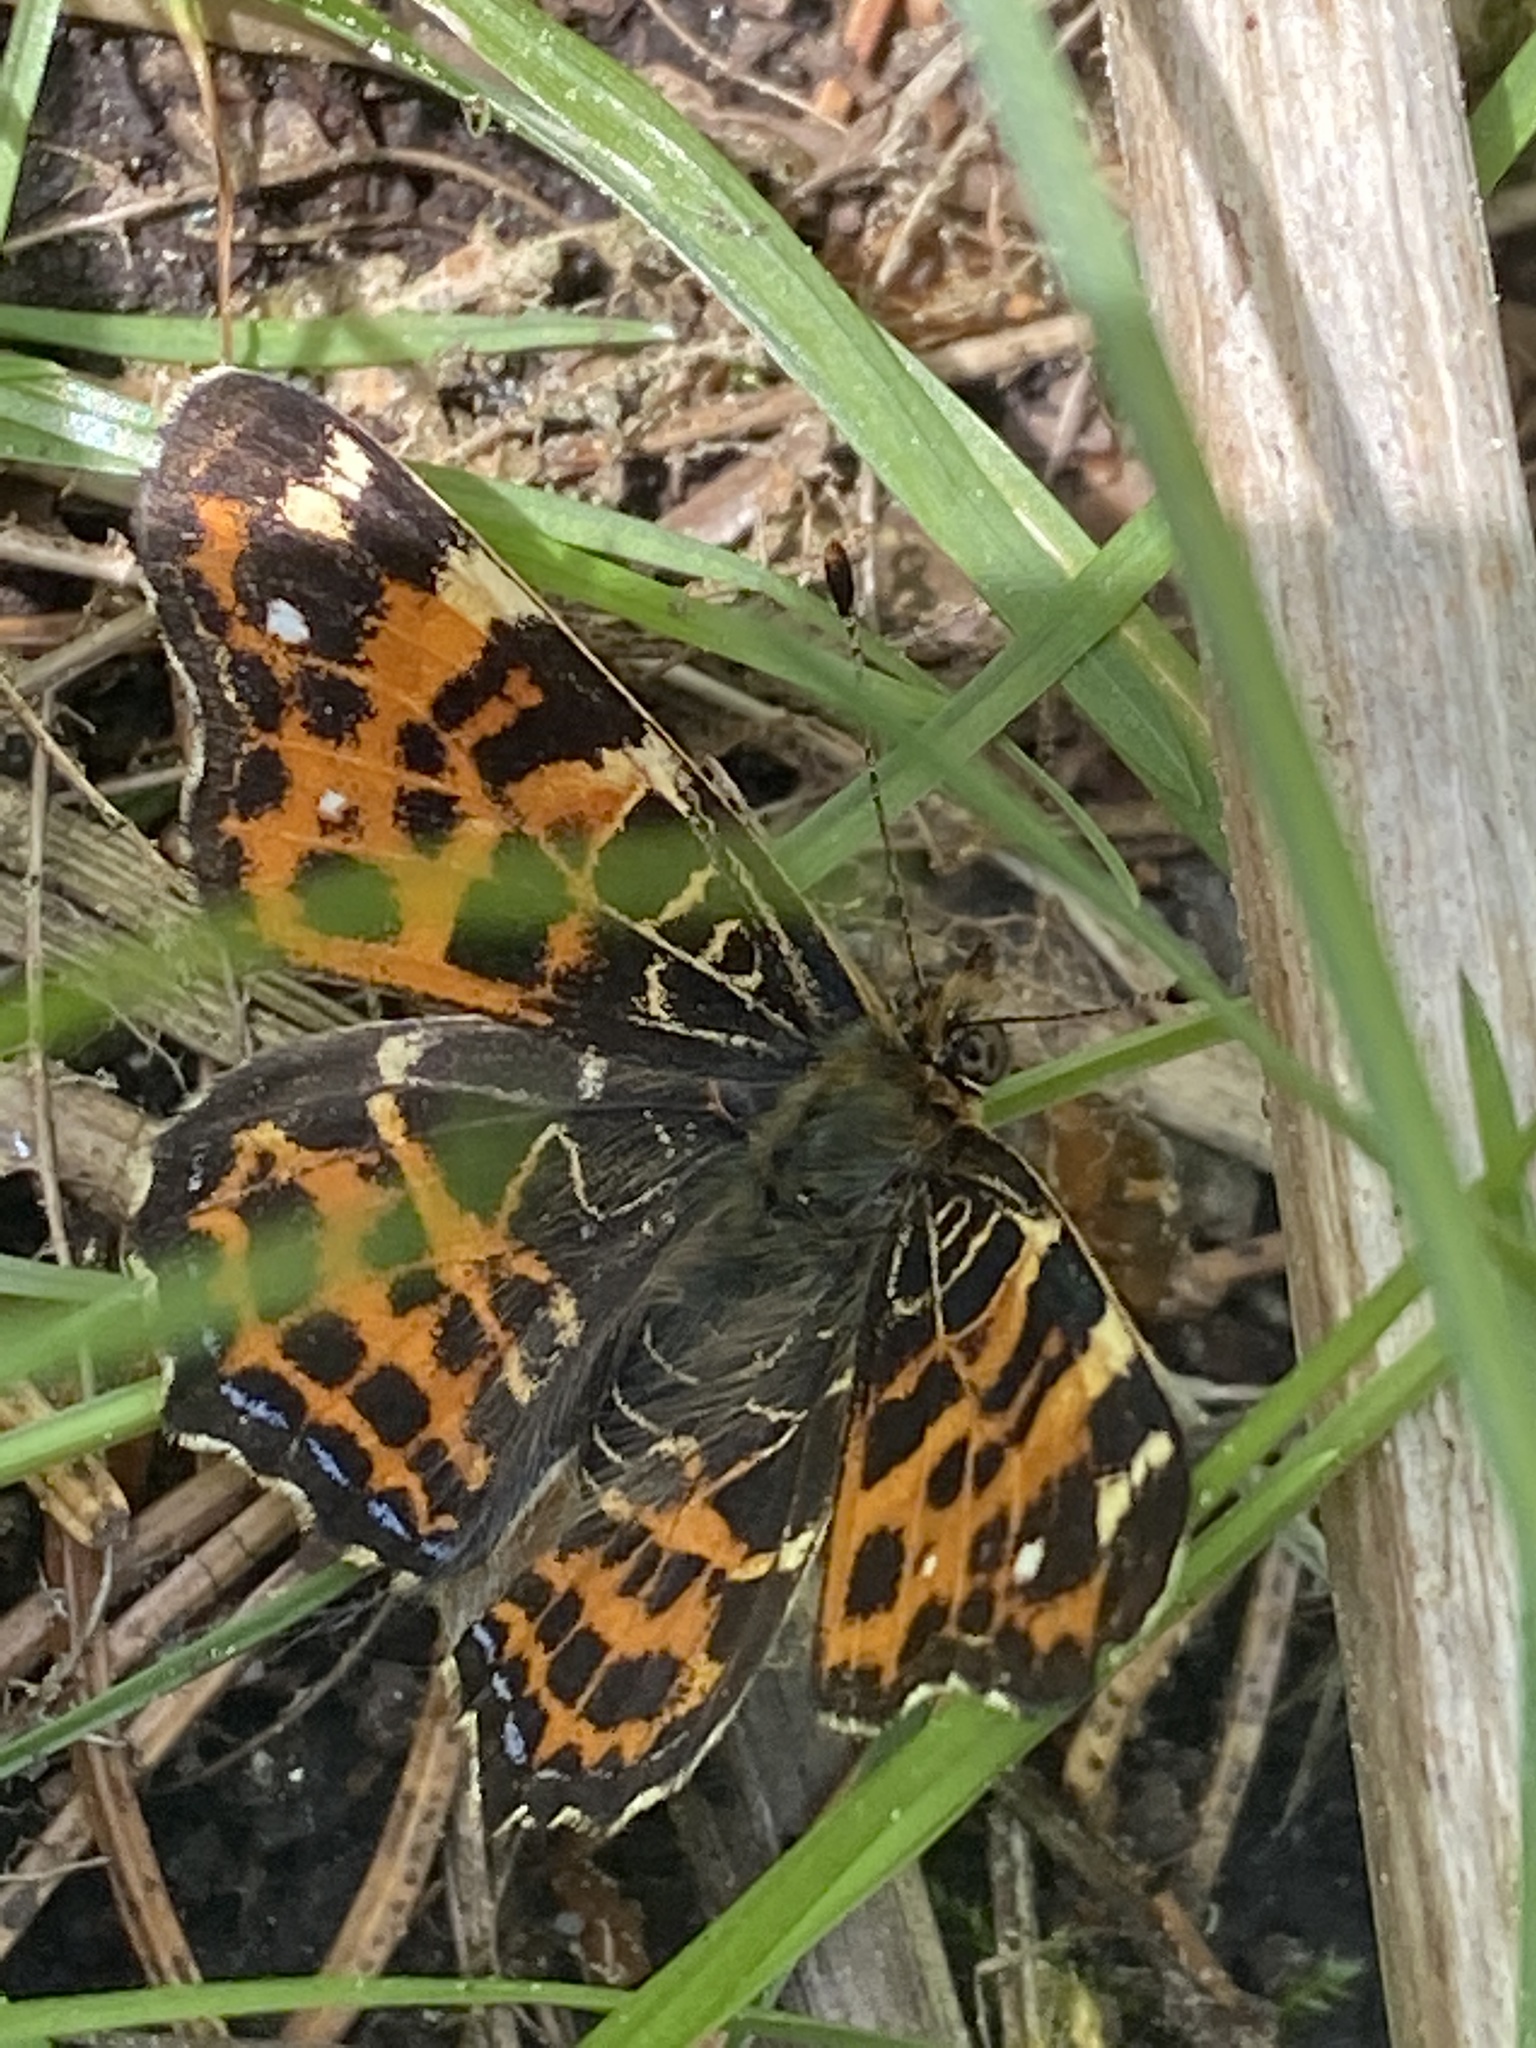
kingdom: Animalia
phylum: Arthropoda
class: Insecta
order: Lepidoptera
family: Nymphalidae
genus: Araschnia
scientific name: Araschnia levana
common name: Map butterfly
